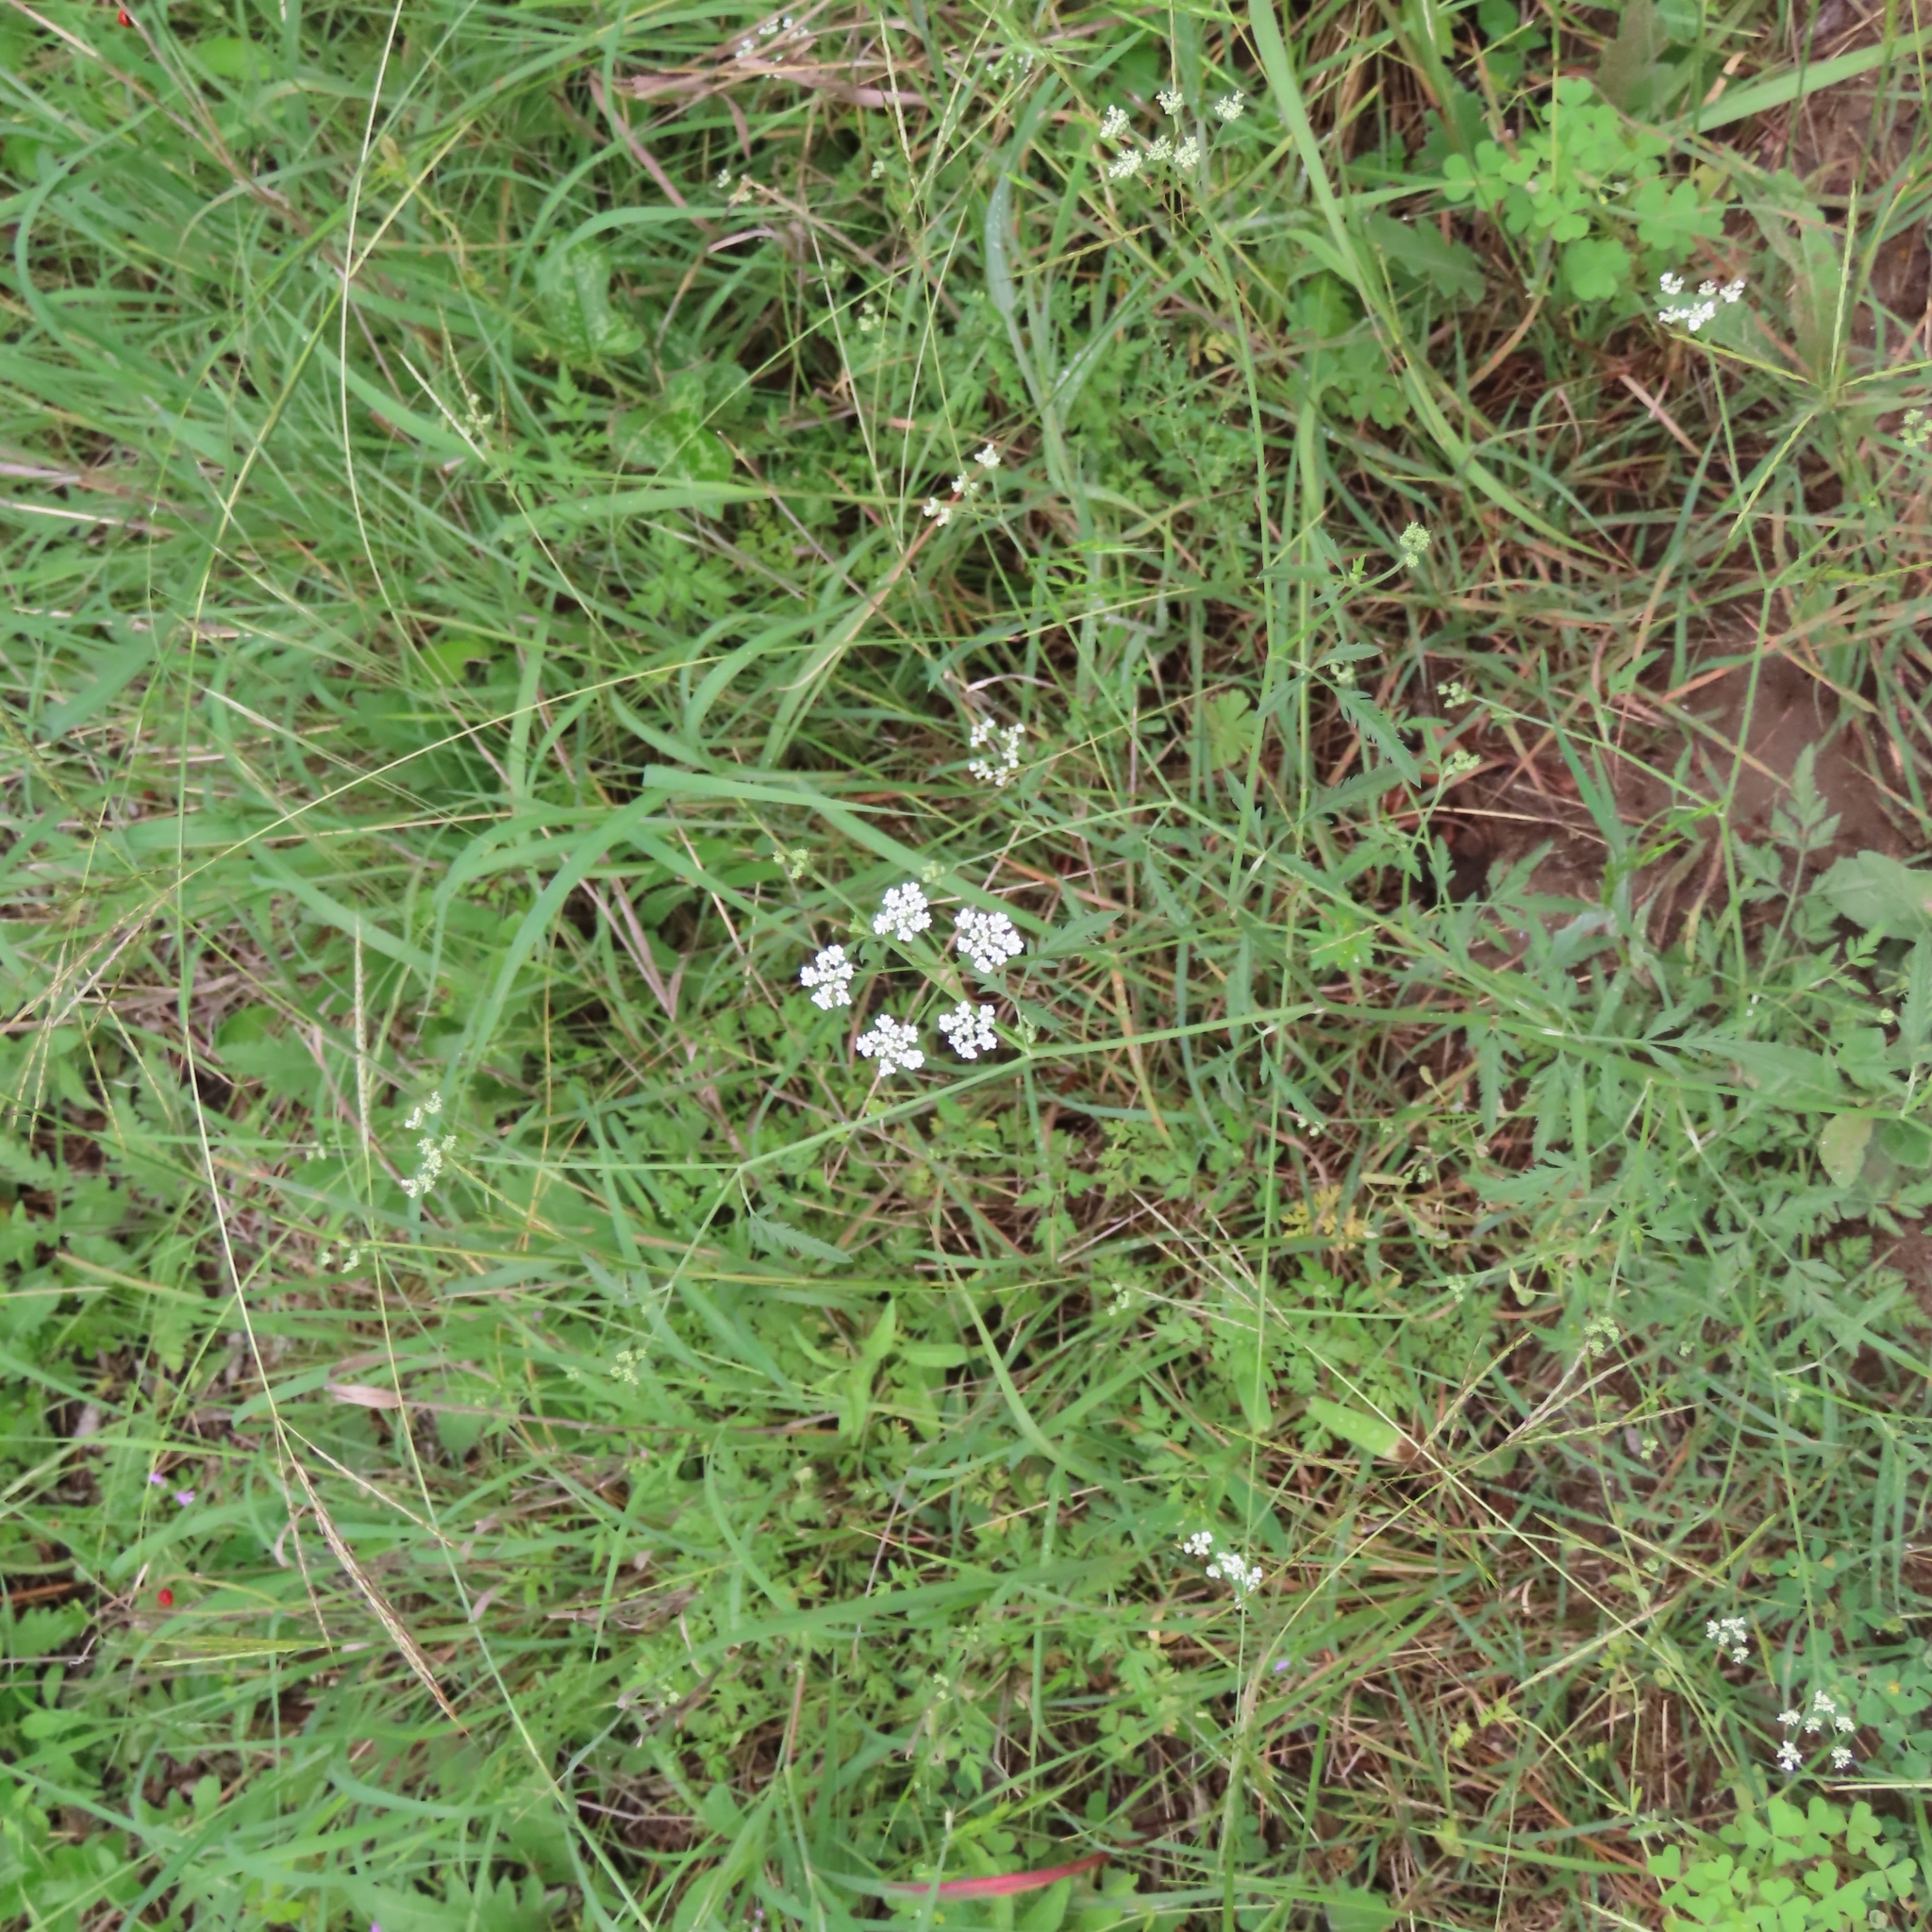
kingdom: Plantae
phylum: Tracheophyta
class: Magnoliopsida
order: Apiales
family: Apiaceae
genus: Torilis
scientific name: Torilis arvensis
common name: Spreading hedge-parsley
